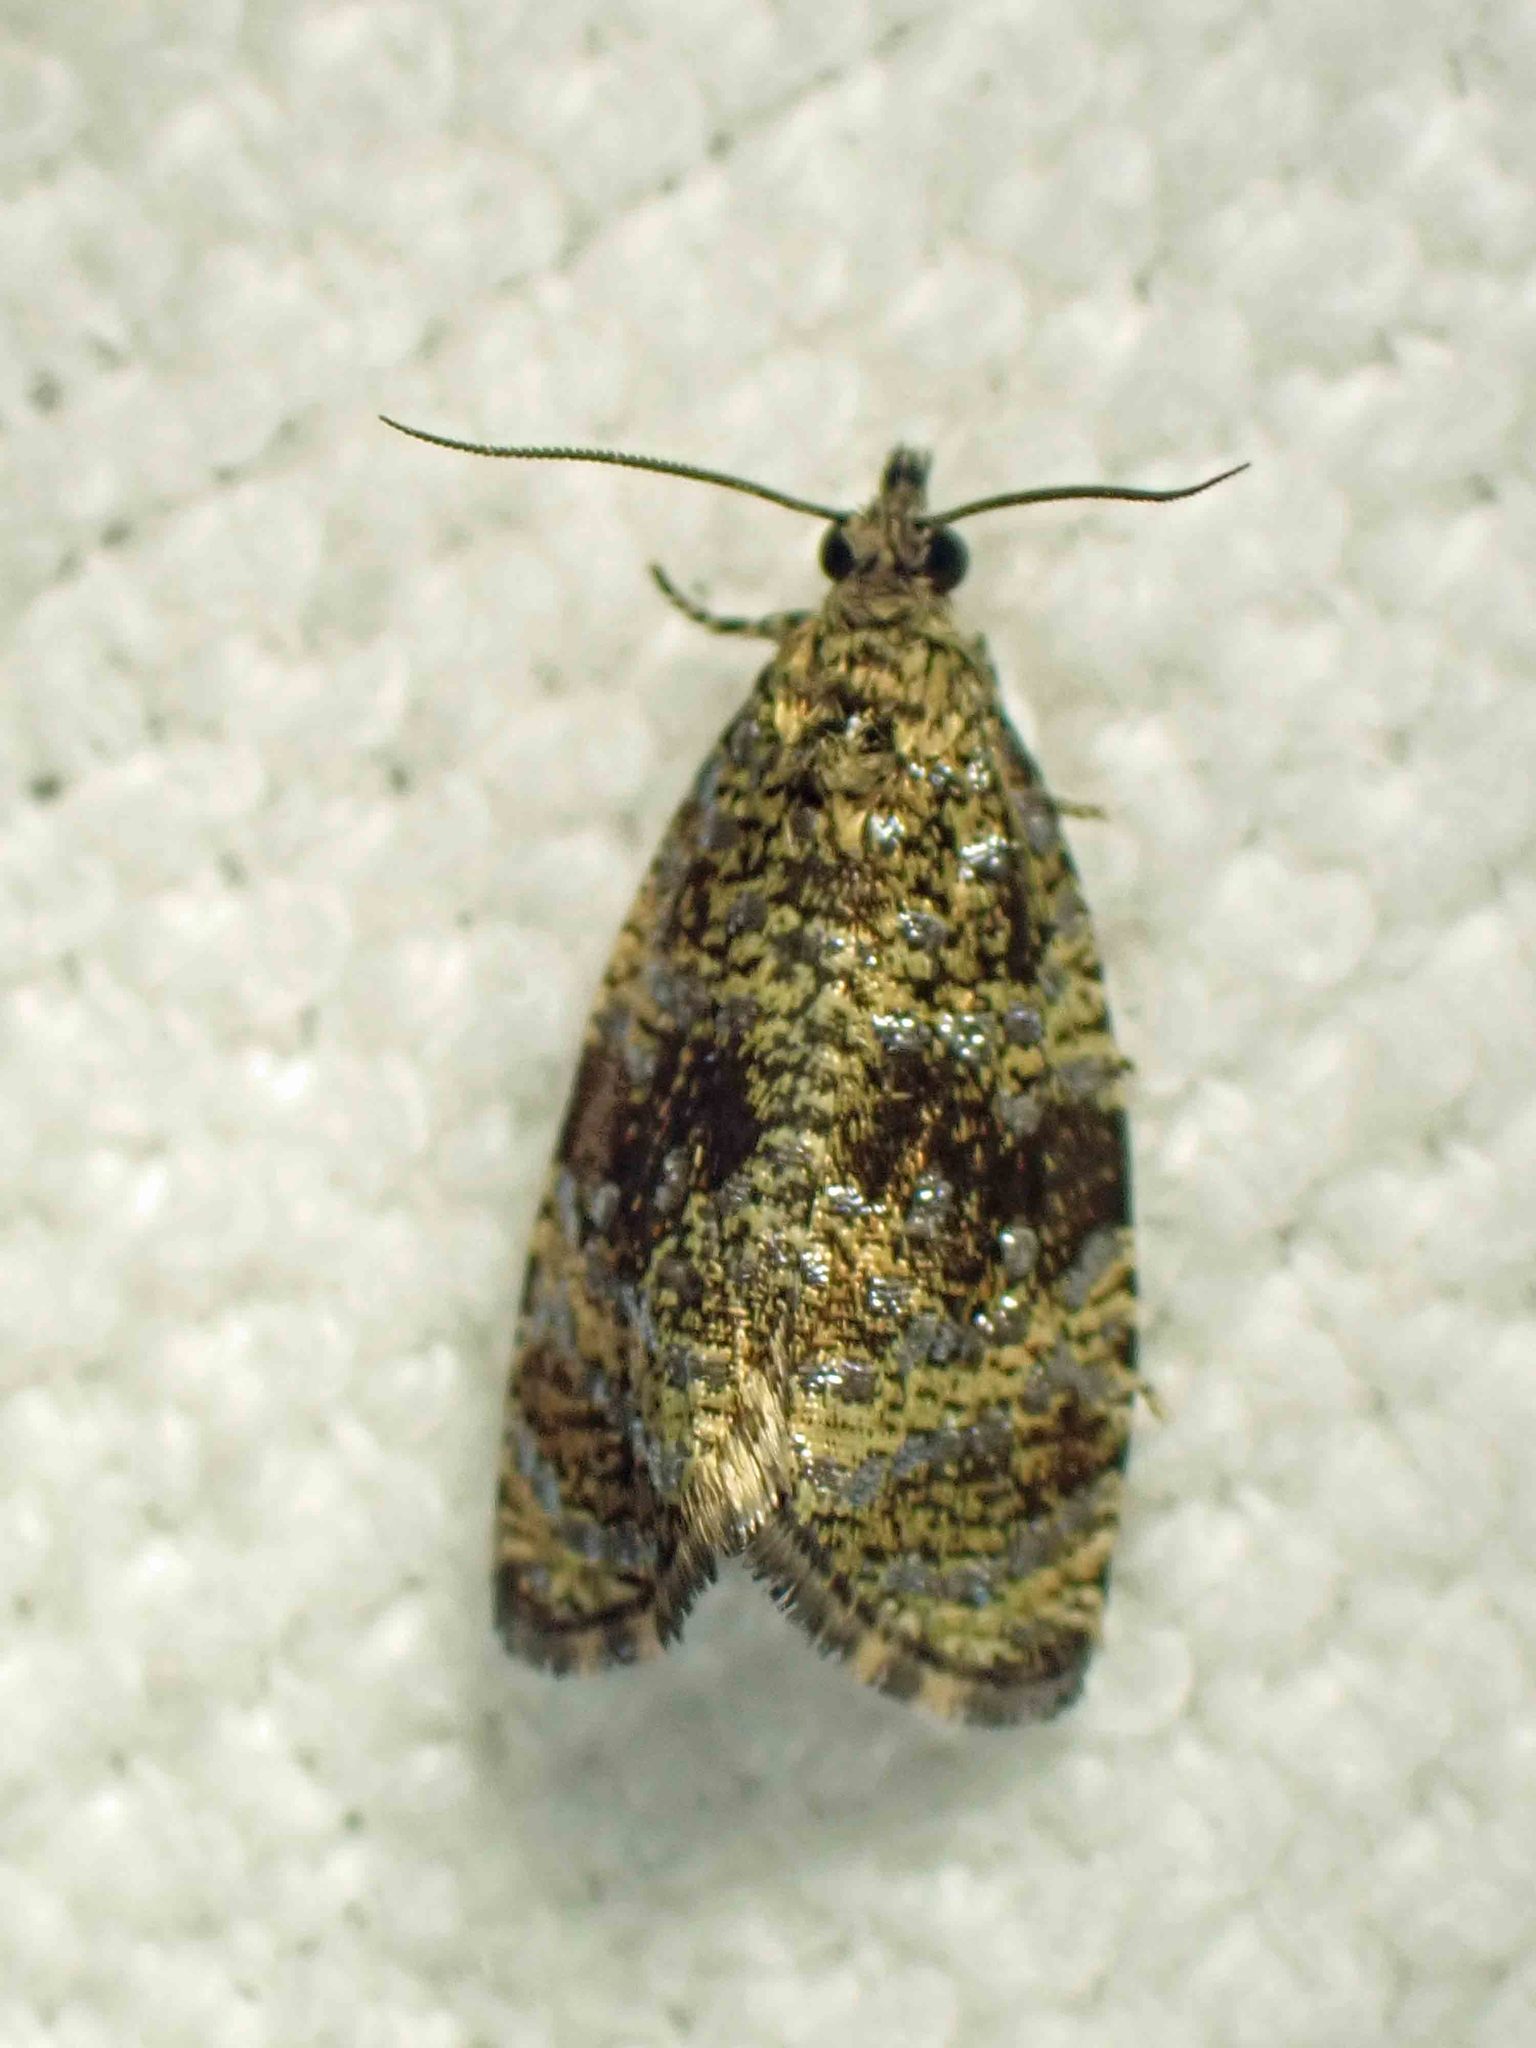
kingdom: Animalia
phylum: Arthropoda
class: Insecta
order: Lepidoptera
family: Tortricidae
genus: Olethreutes
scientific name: Olethreutes astrologana
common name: Astronomer moth
